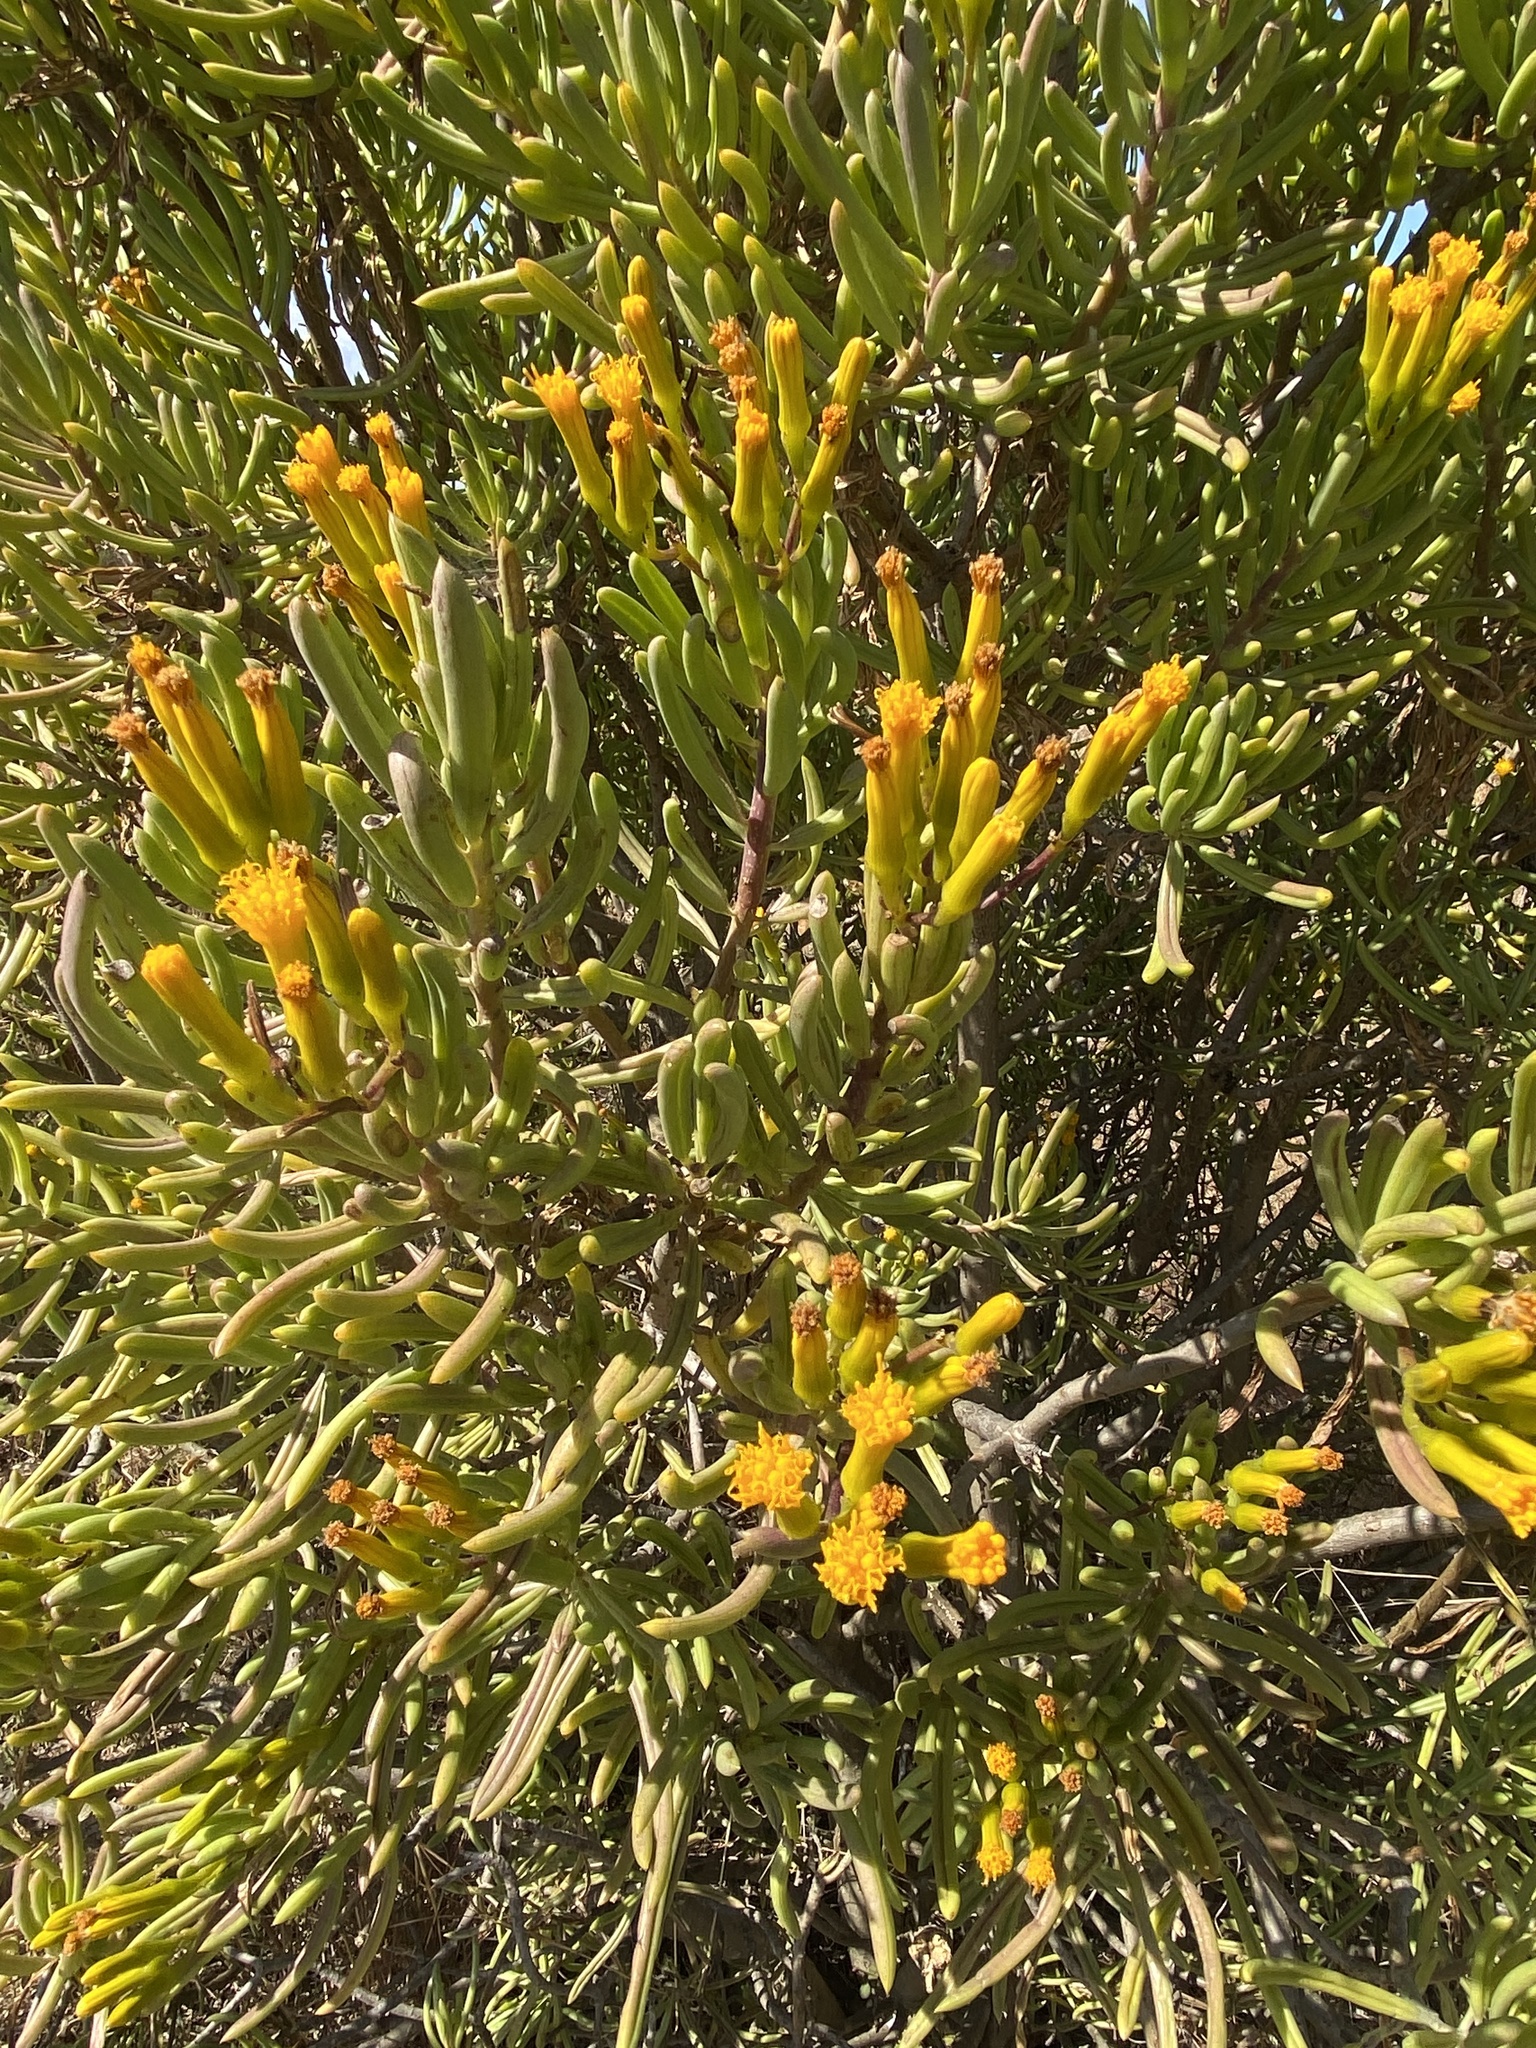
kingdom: Plantae
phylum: Tracheophyta
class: Magnoliopsida
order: Asterales
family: Asteraceae
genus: Kleinia
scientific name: Kleinia barbertonica
